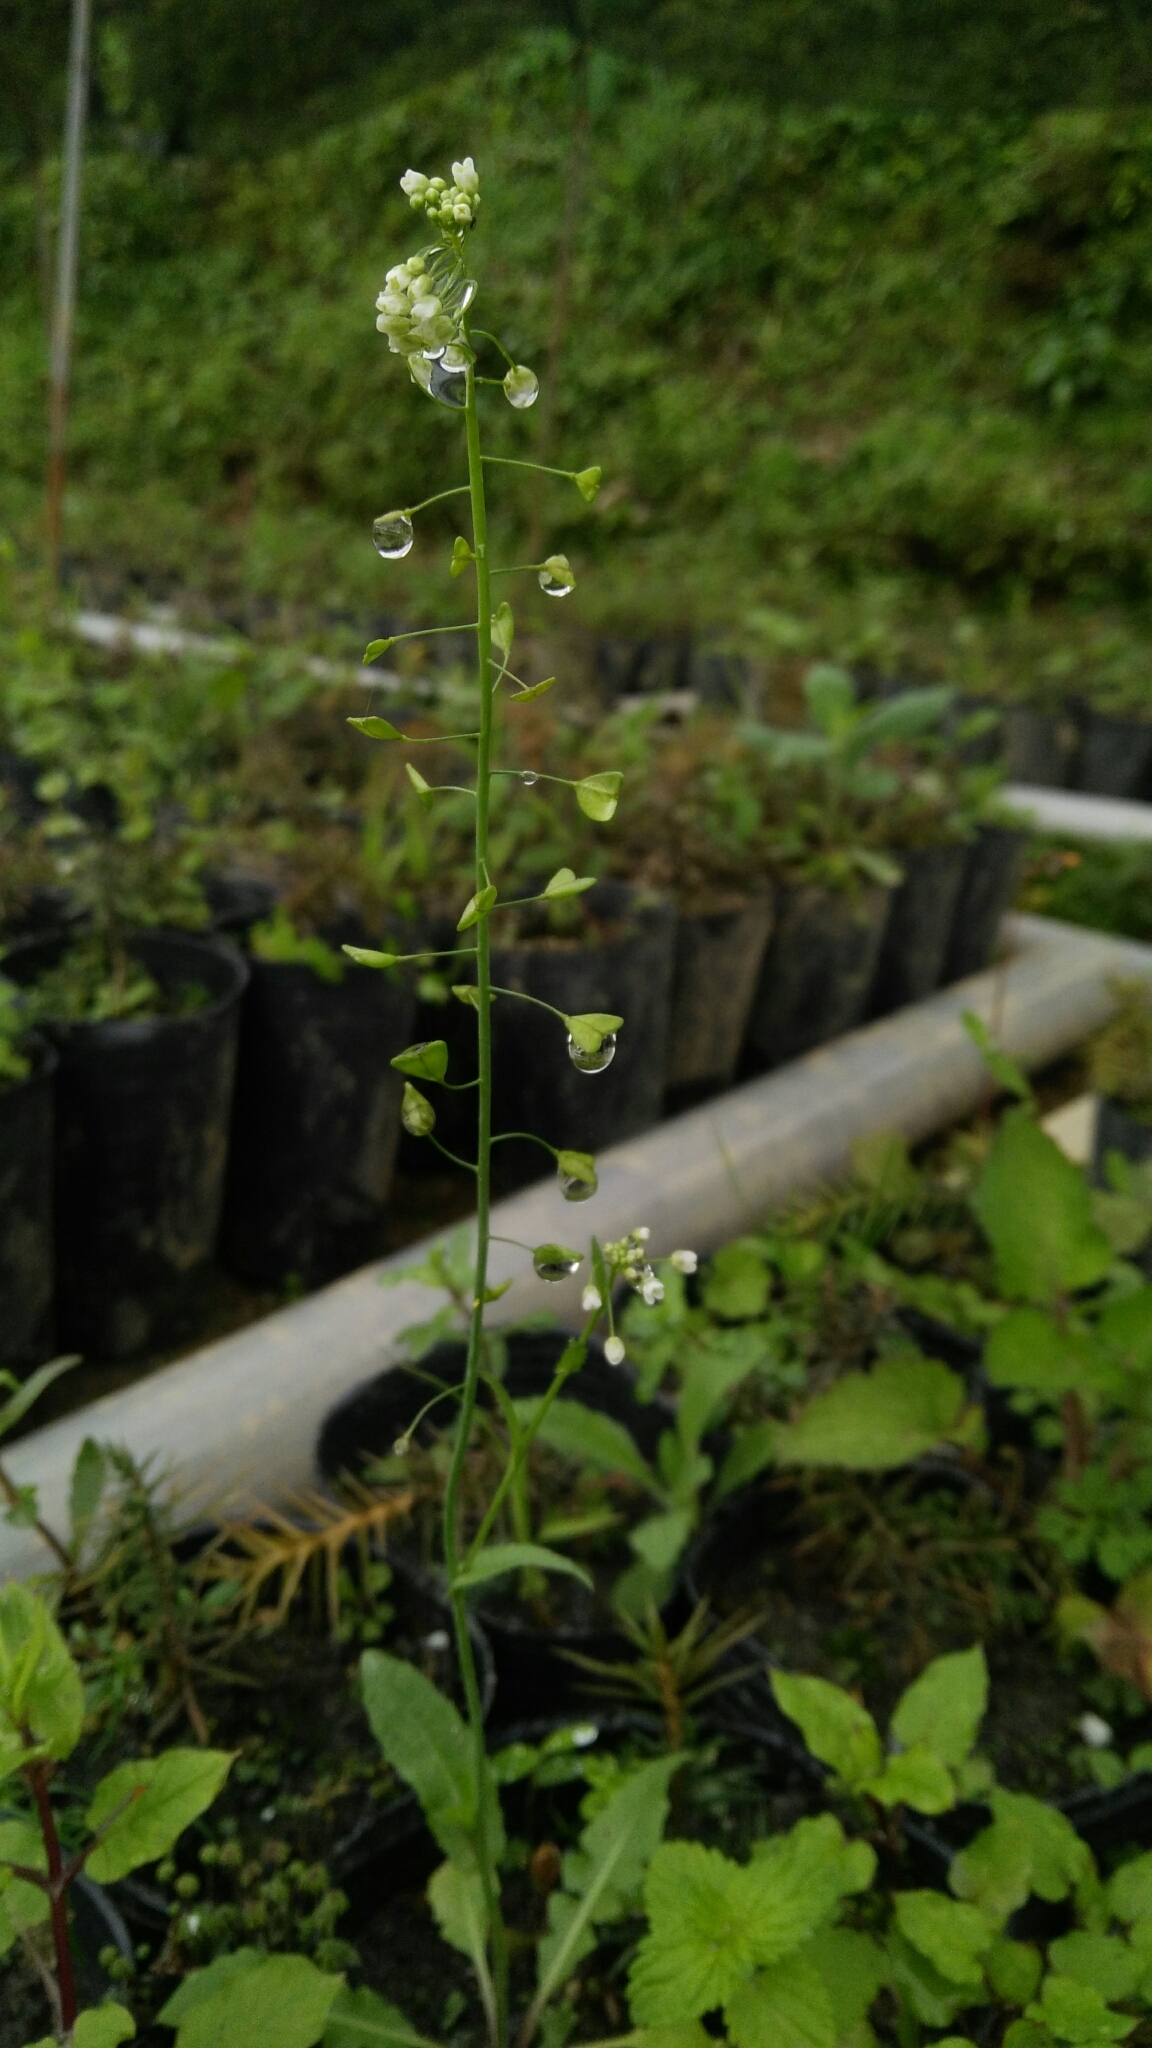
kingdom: Plantae
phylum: Tracheophyta
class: Magnoliopsida
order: Brassicales
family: Brassicaceae
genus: Capsella
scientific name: Capsella bursa-pastoris
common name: Shepherd's purse
